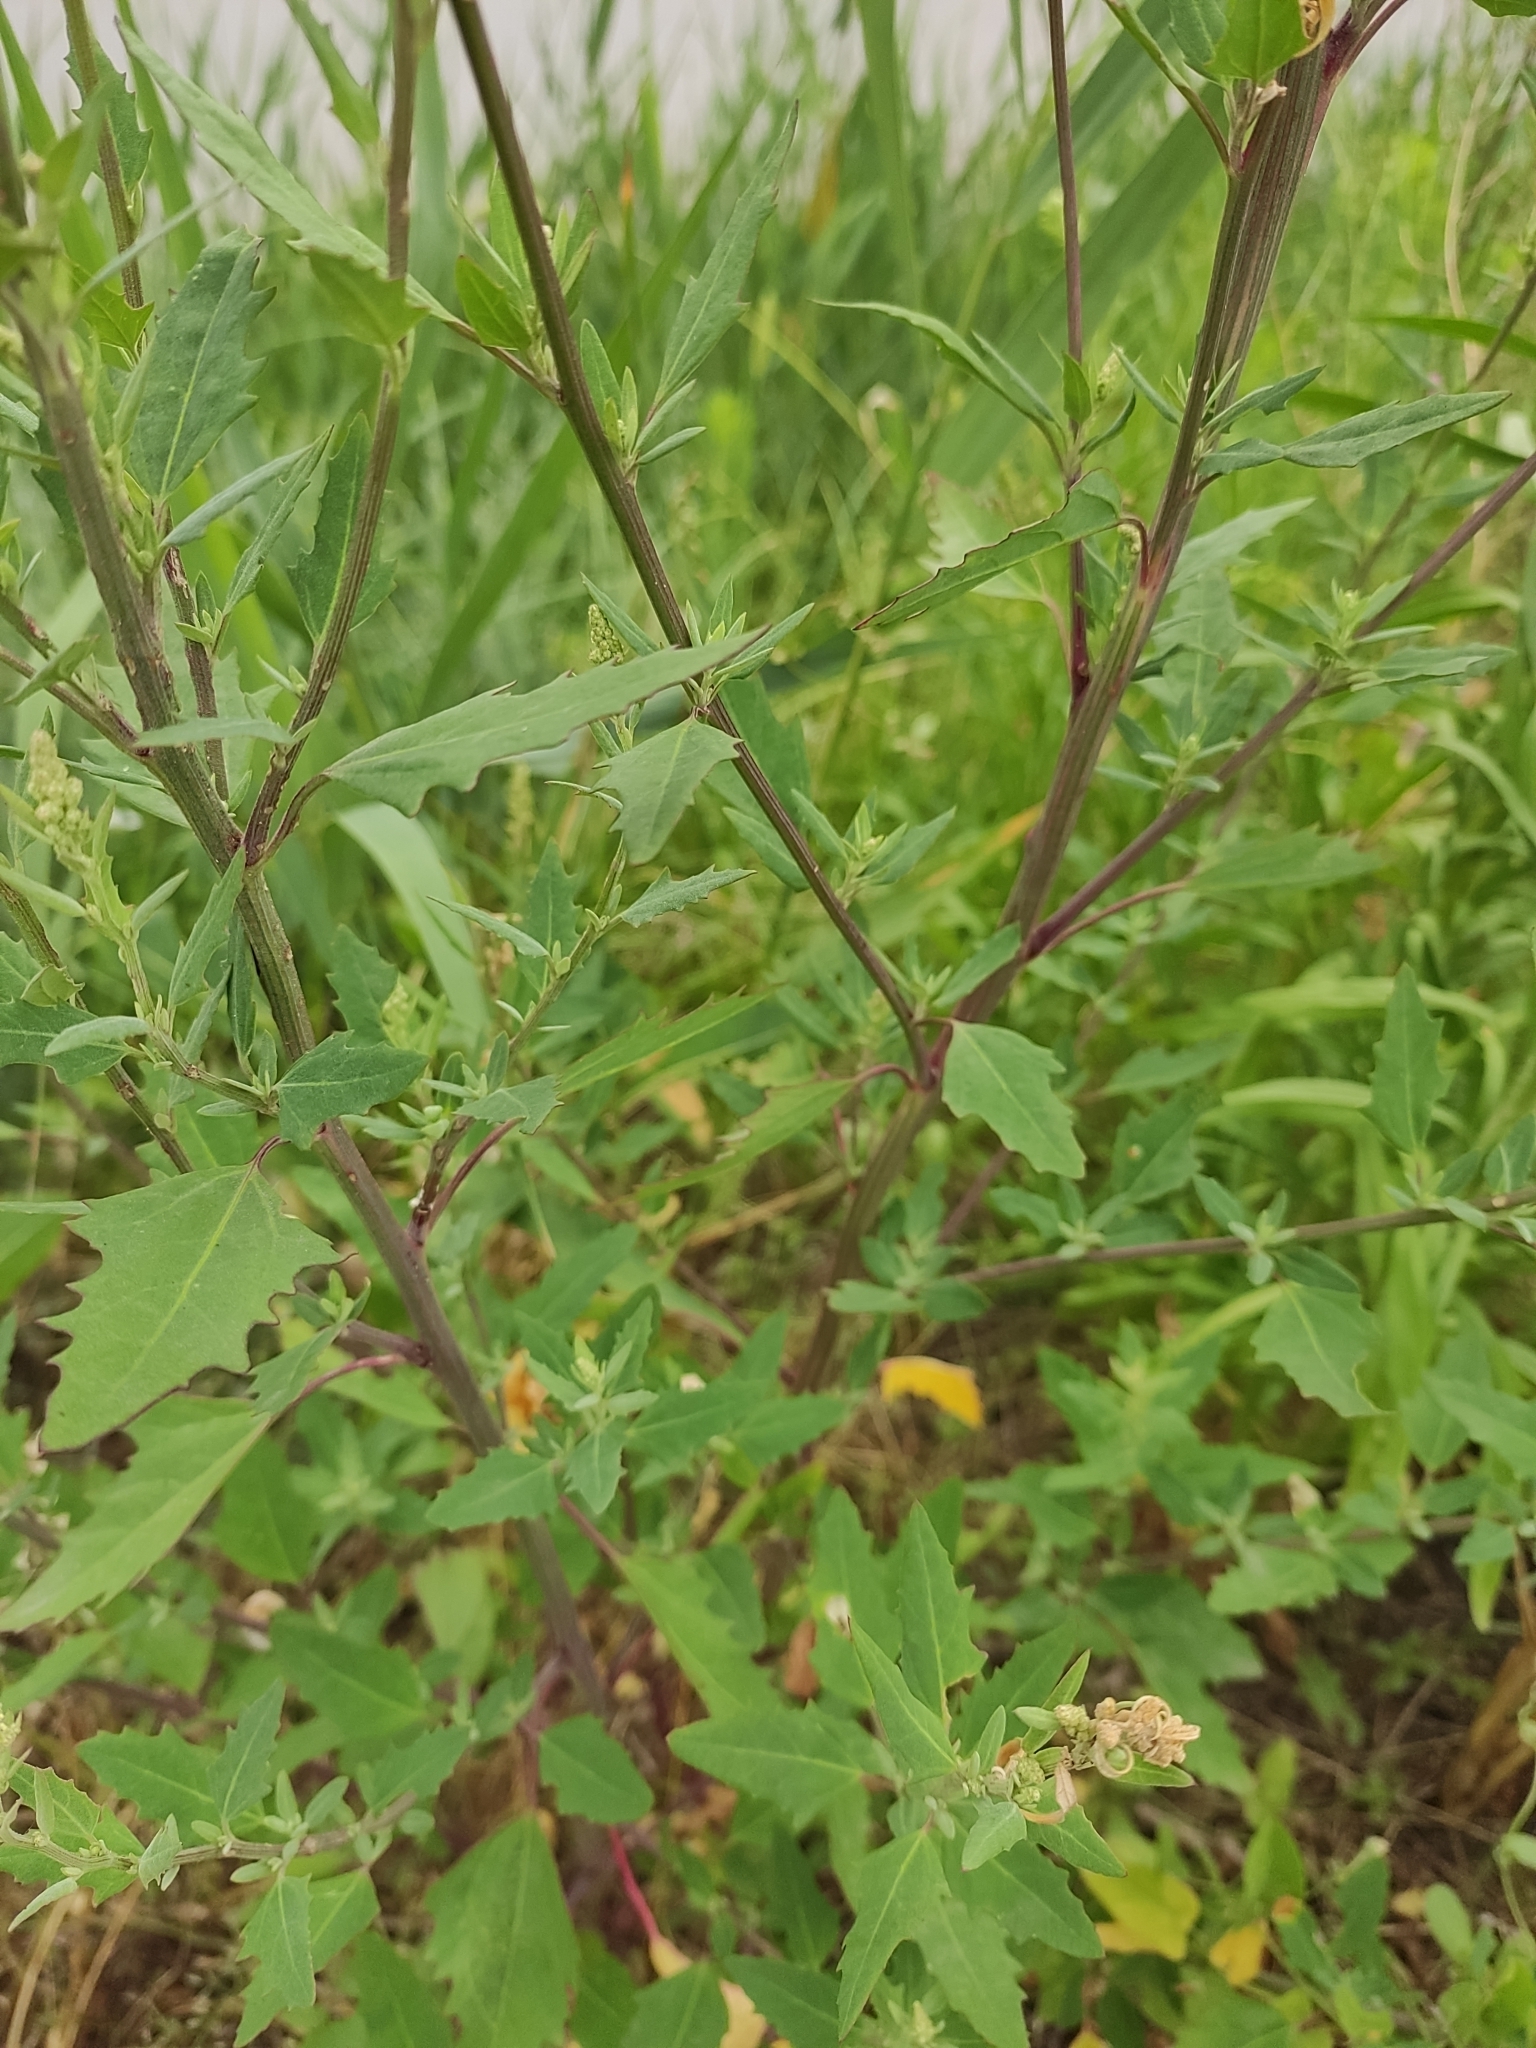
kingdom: Plantae
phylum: Tracheophyta
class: Magnoliopsida
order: Caryophyllales
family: Amaranthaceae
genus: Chenopodium
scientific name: Chenopodium album
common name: Fat-hen
